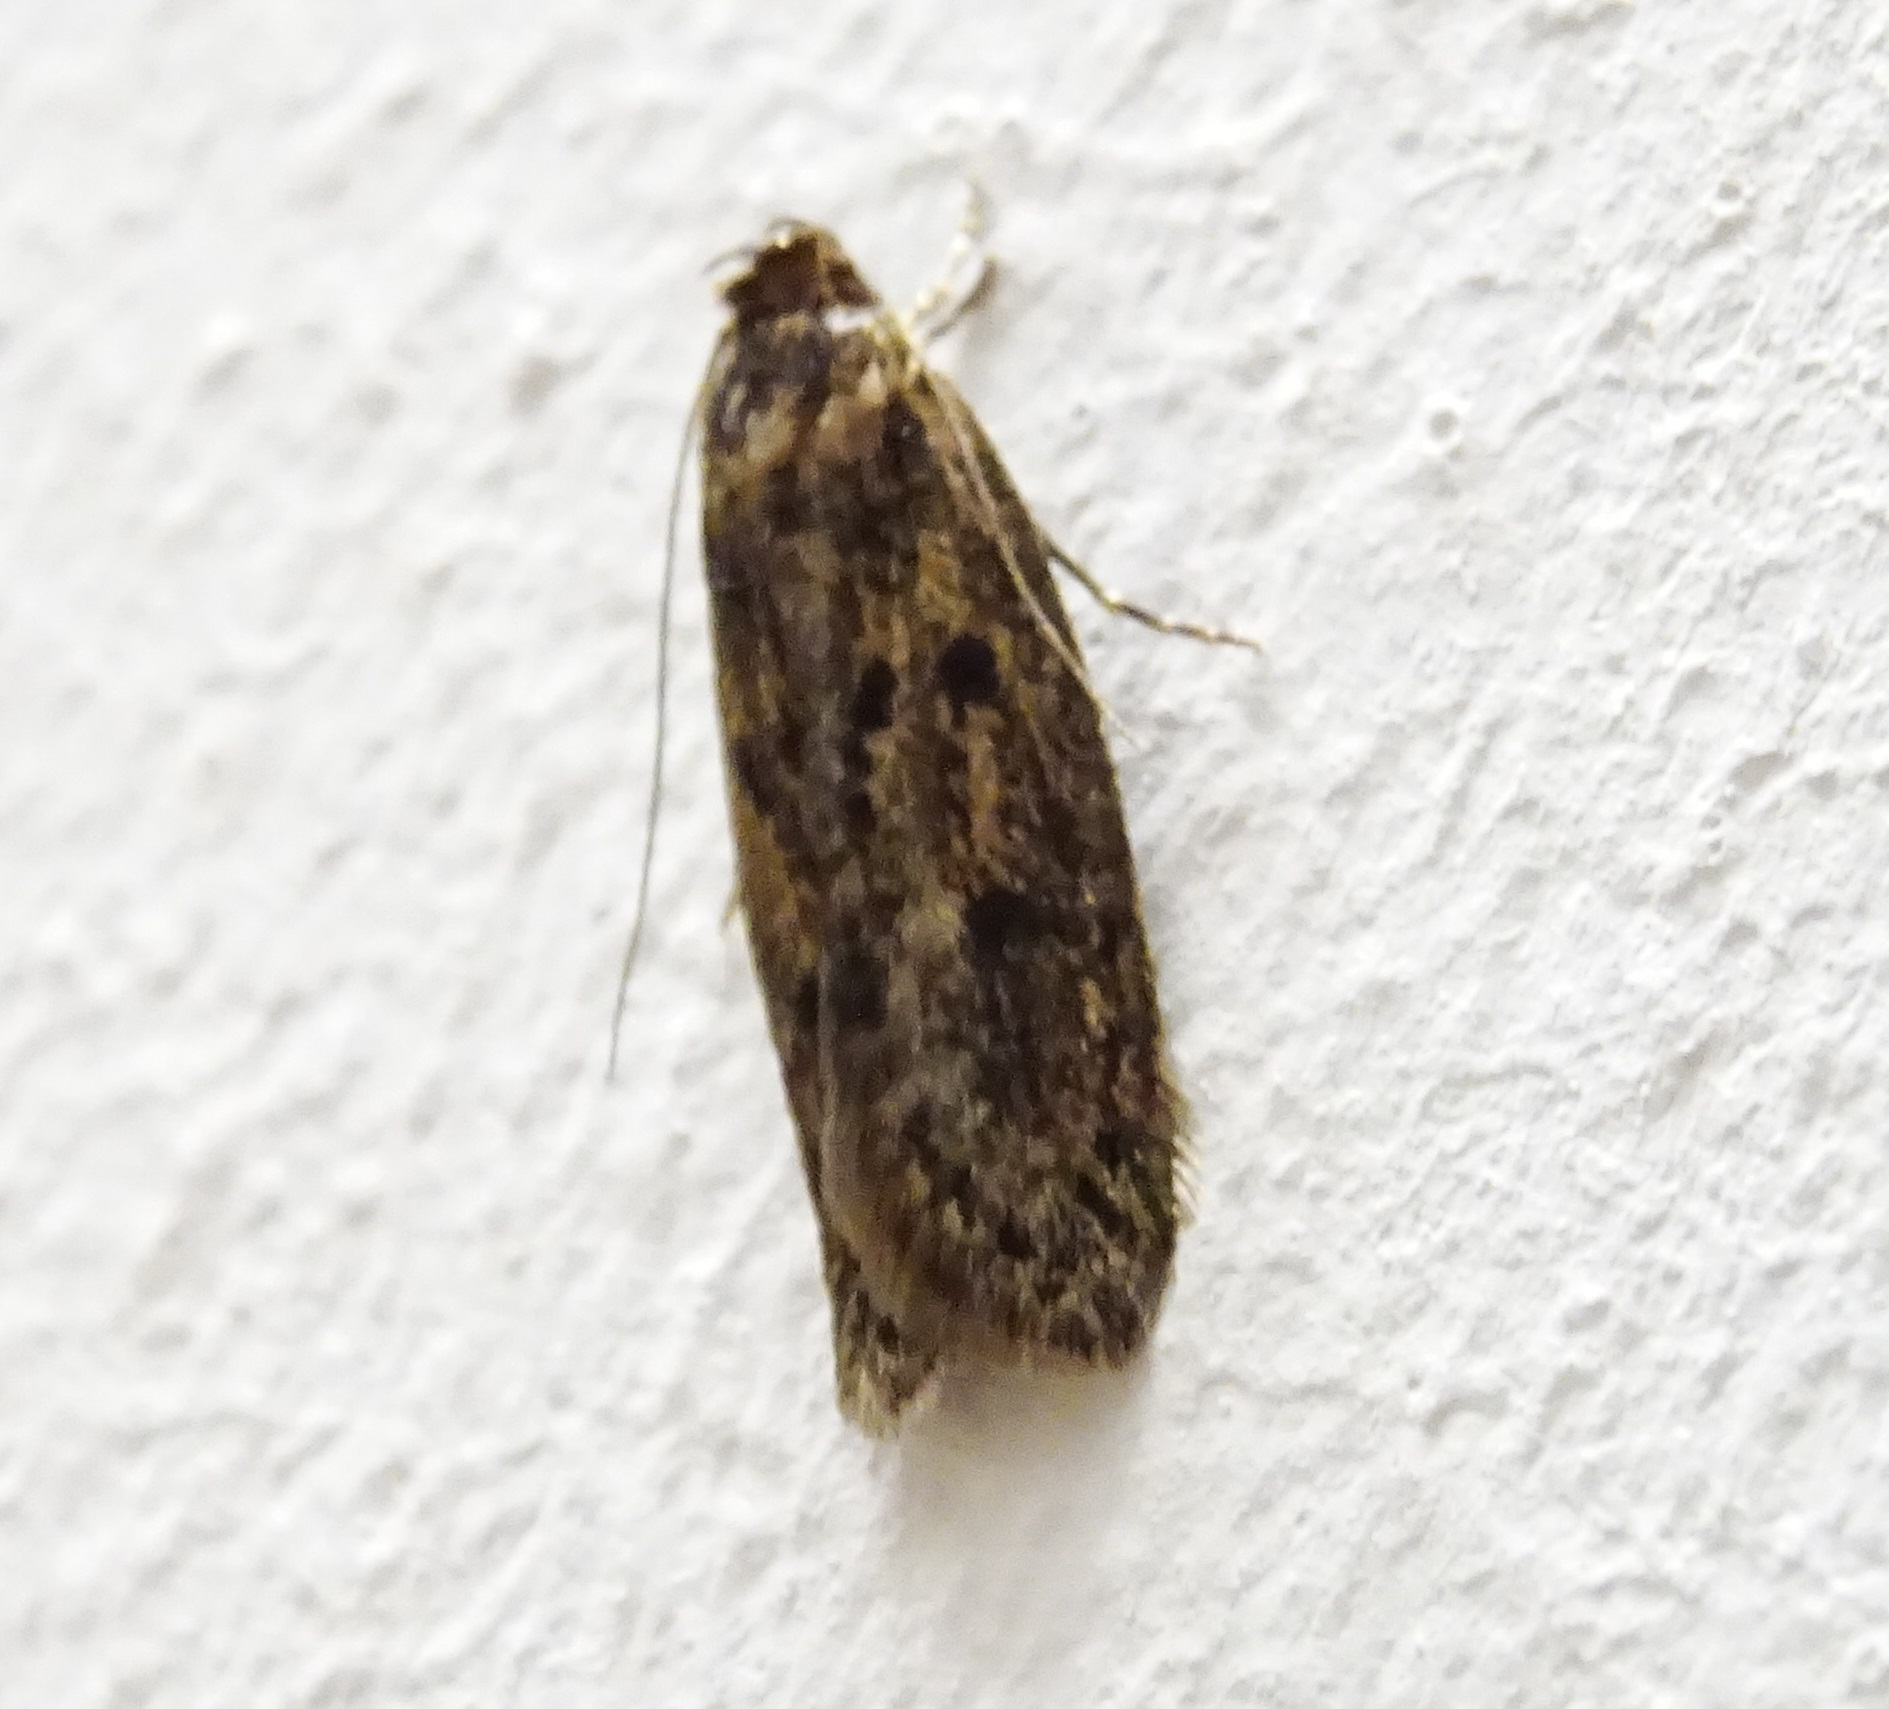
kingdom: Animalia
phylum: Arthropoda
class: Insecta
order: Lepidoptera
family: Oecophoridae
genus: Hofmannophila
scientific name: Hofmannophila pseudospretella
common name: Brown house moth
